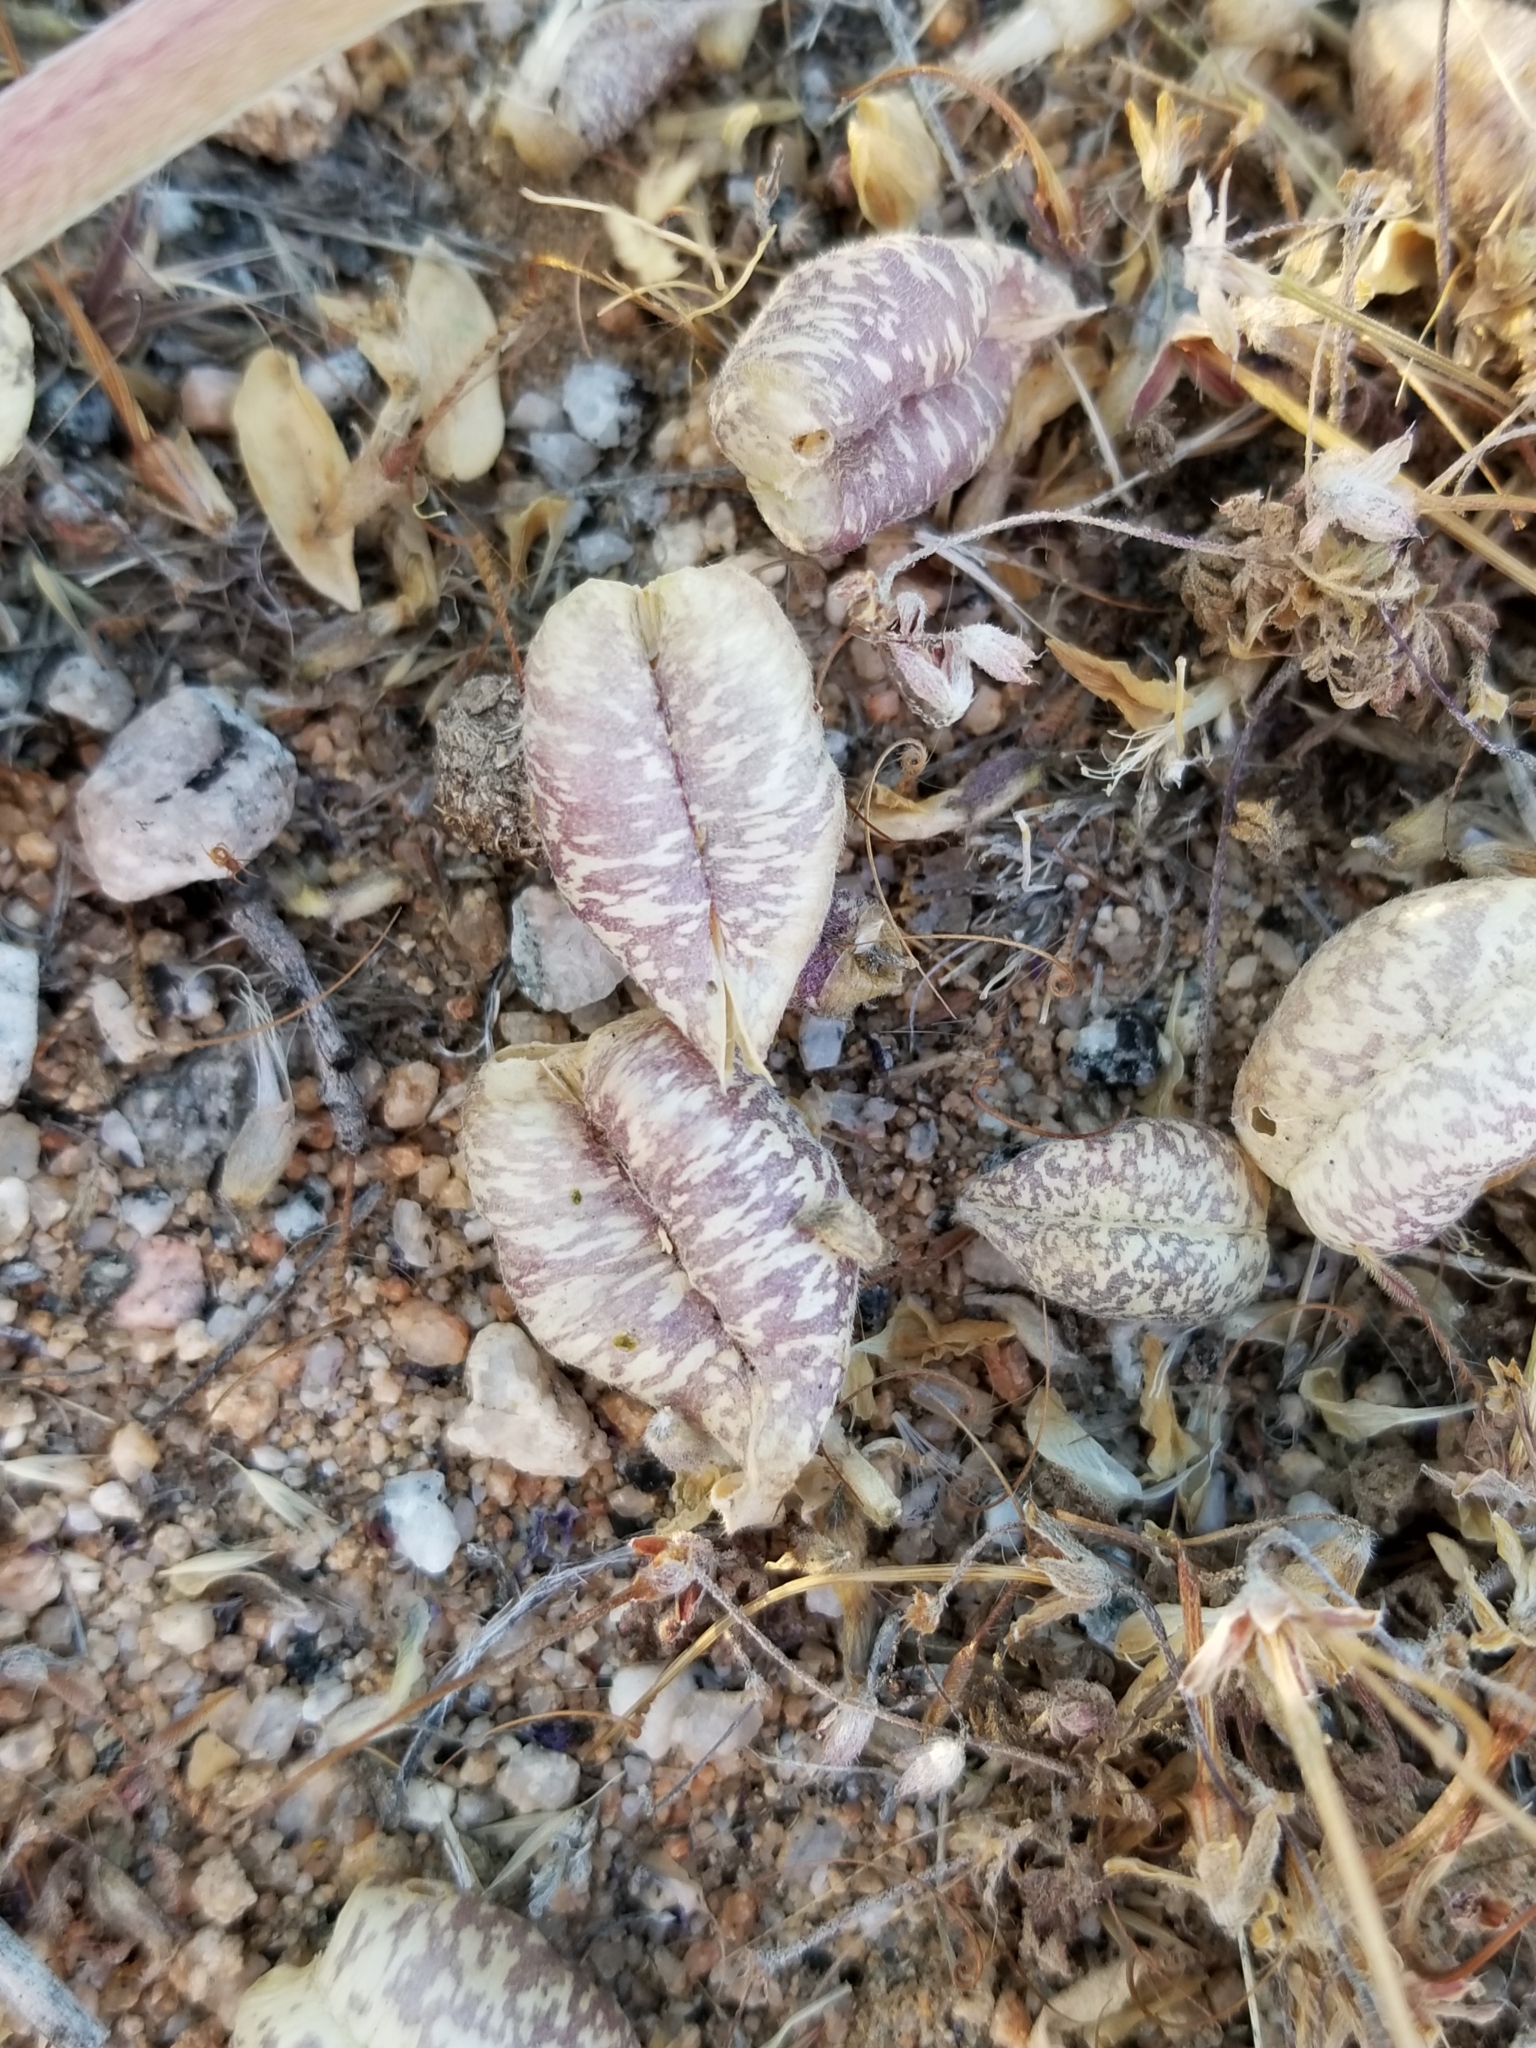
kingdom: Plantae
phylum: Tracheophyta
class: Magnoliopsida
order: Fabales
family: Fabaceae
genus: Astragalus
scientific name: Astragalus lentiginosus
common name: Freckled milkvetch
